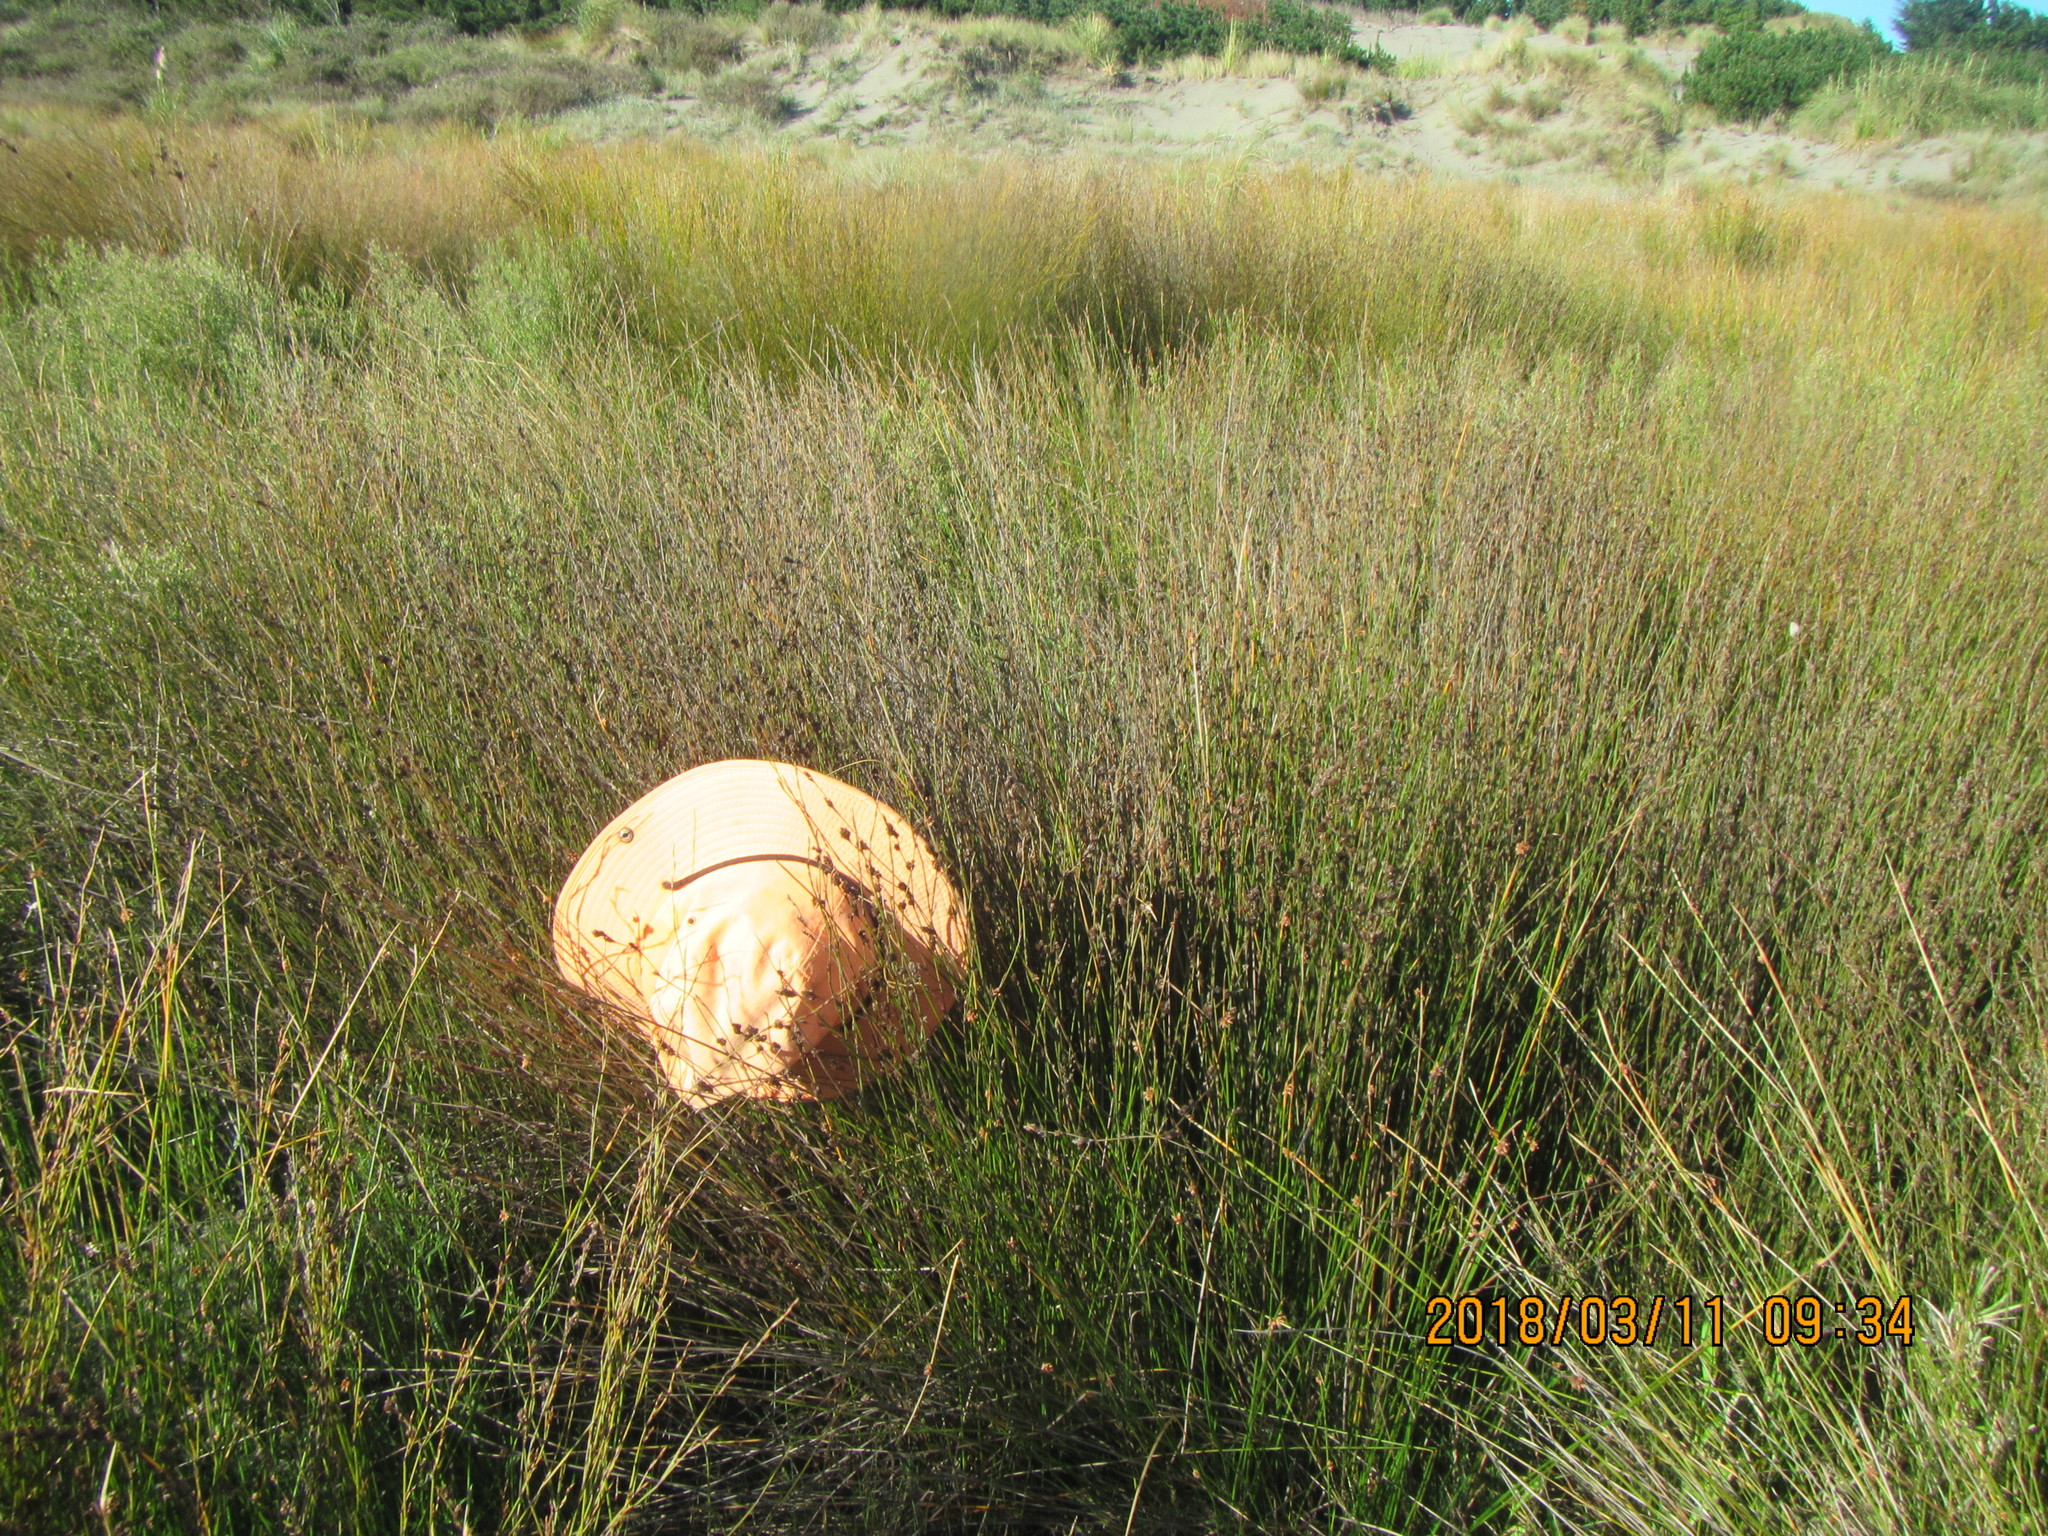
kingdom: Plantae
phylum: Tracheophyta
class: Liliopsida
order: Poales
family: Restionaceae
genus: Apodasmia
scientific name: Apodasmia similis
